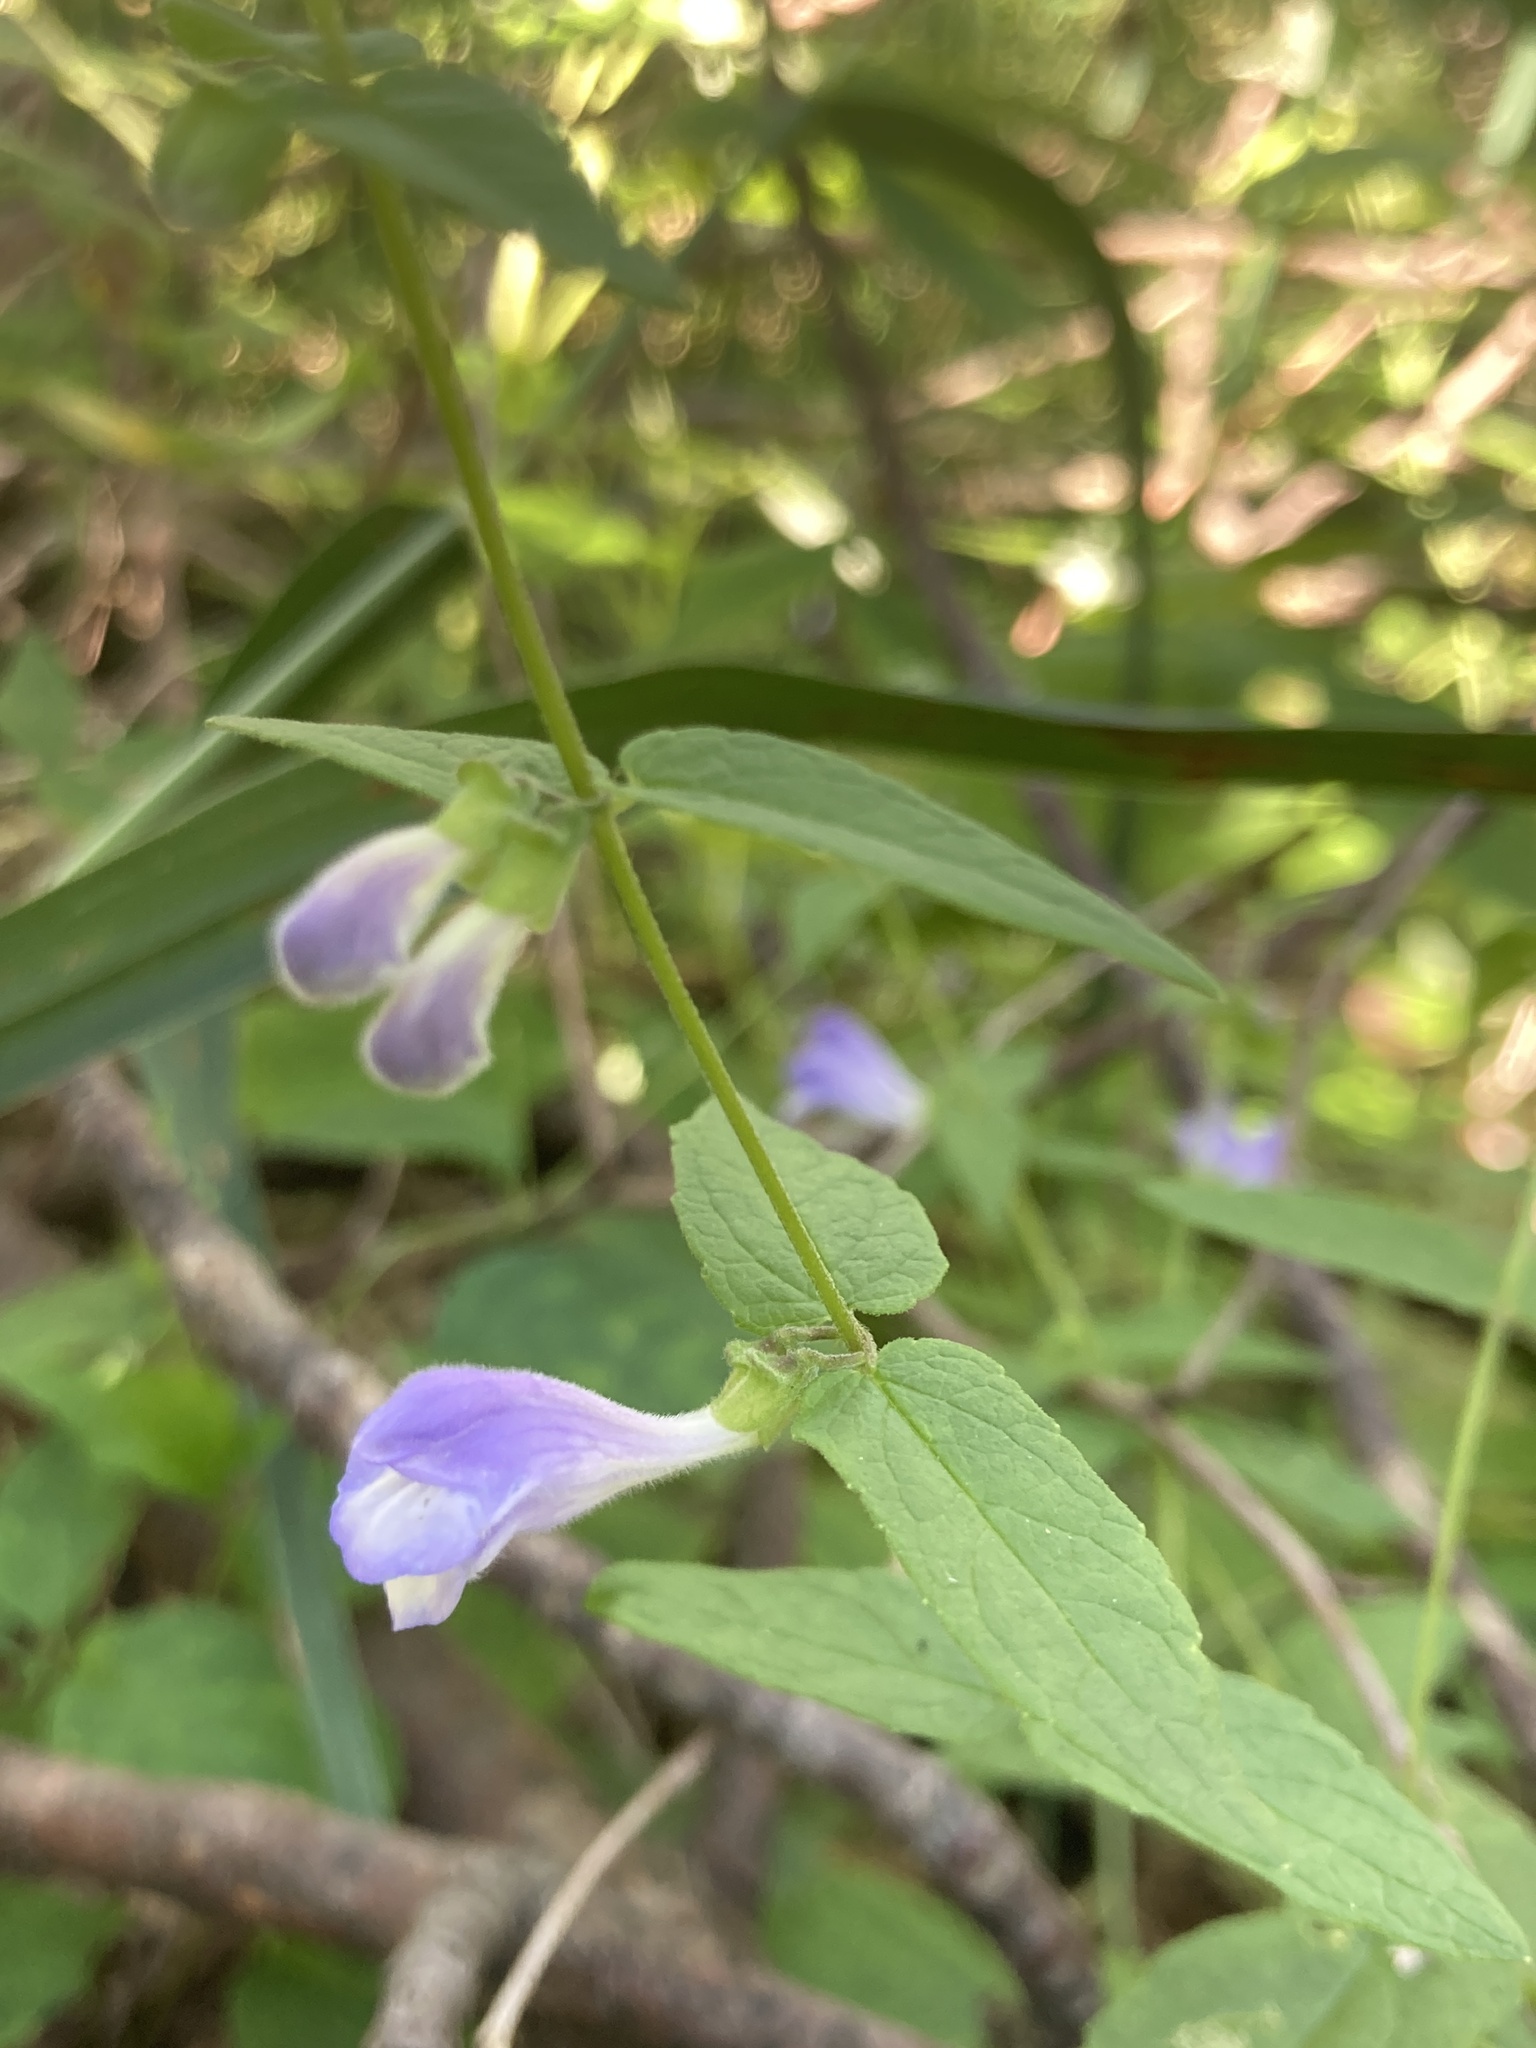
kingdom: Plantae
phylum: Tracheophyta
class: Magnoliopsida
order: Lamiales
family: Lamiaceae
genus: Scutellaria
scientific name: Scutellaria galericulata
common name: Skullcap
